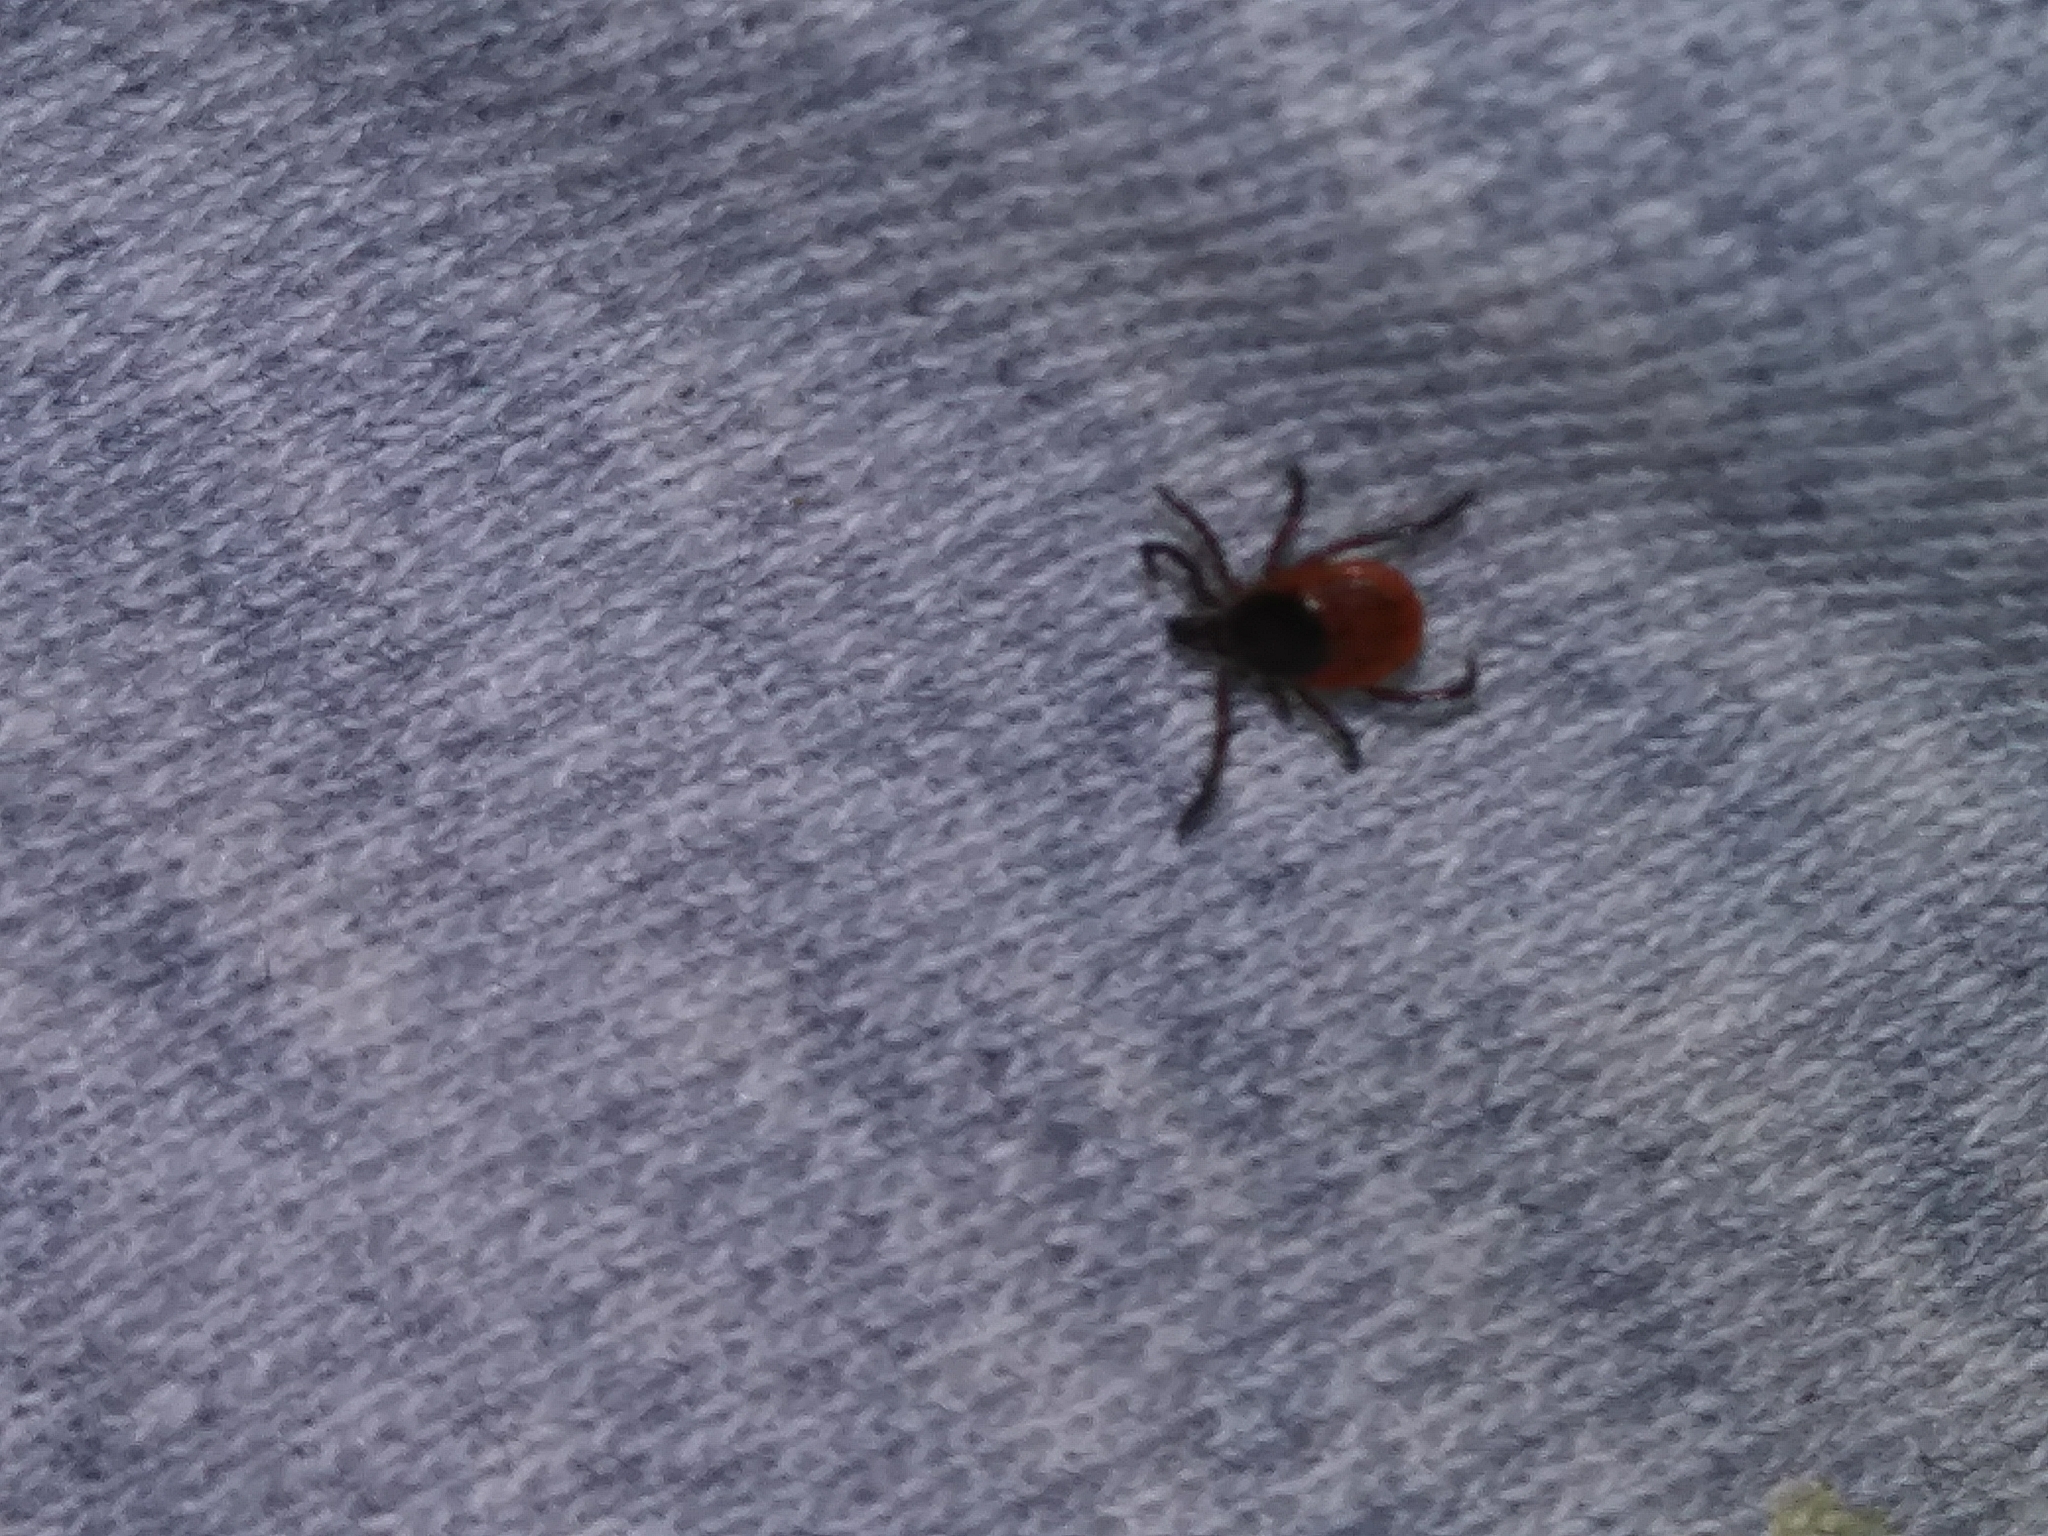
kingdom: Animalia
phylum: Arthropoda
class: Arachnida
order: Ixodida
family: Ixodidae
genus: Ixodes
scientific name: Ixodes scapularis
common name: Black legged tick
